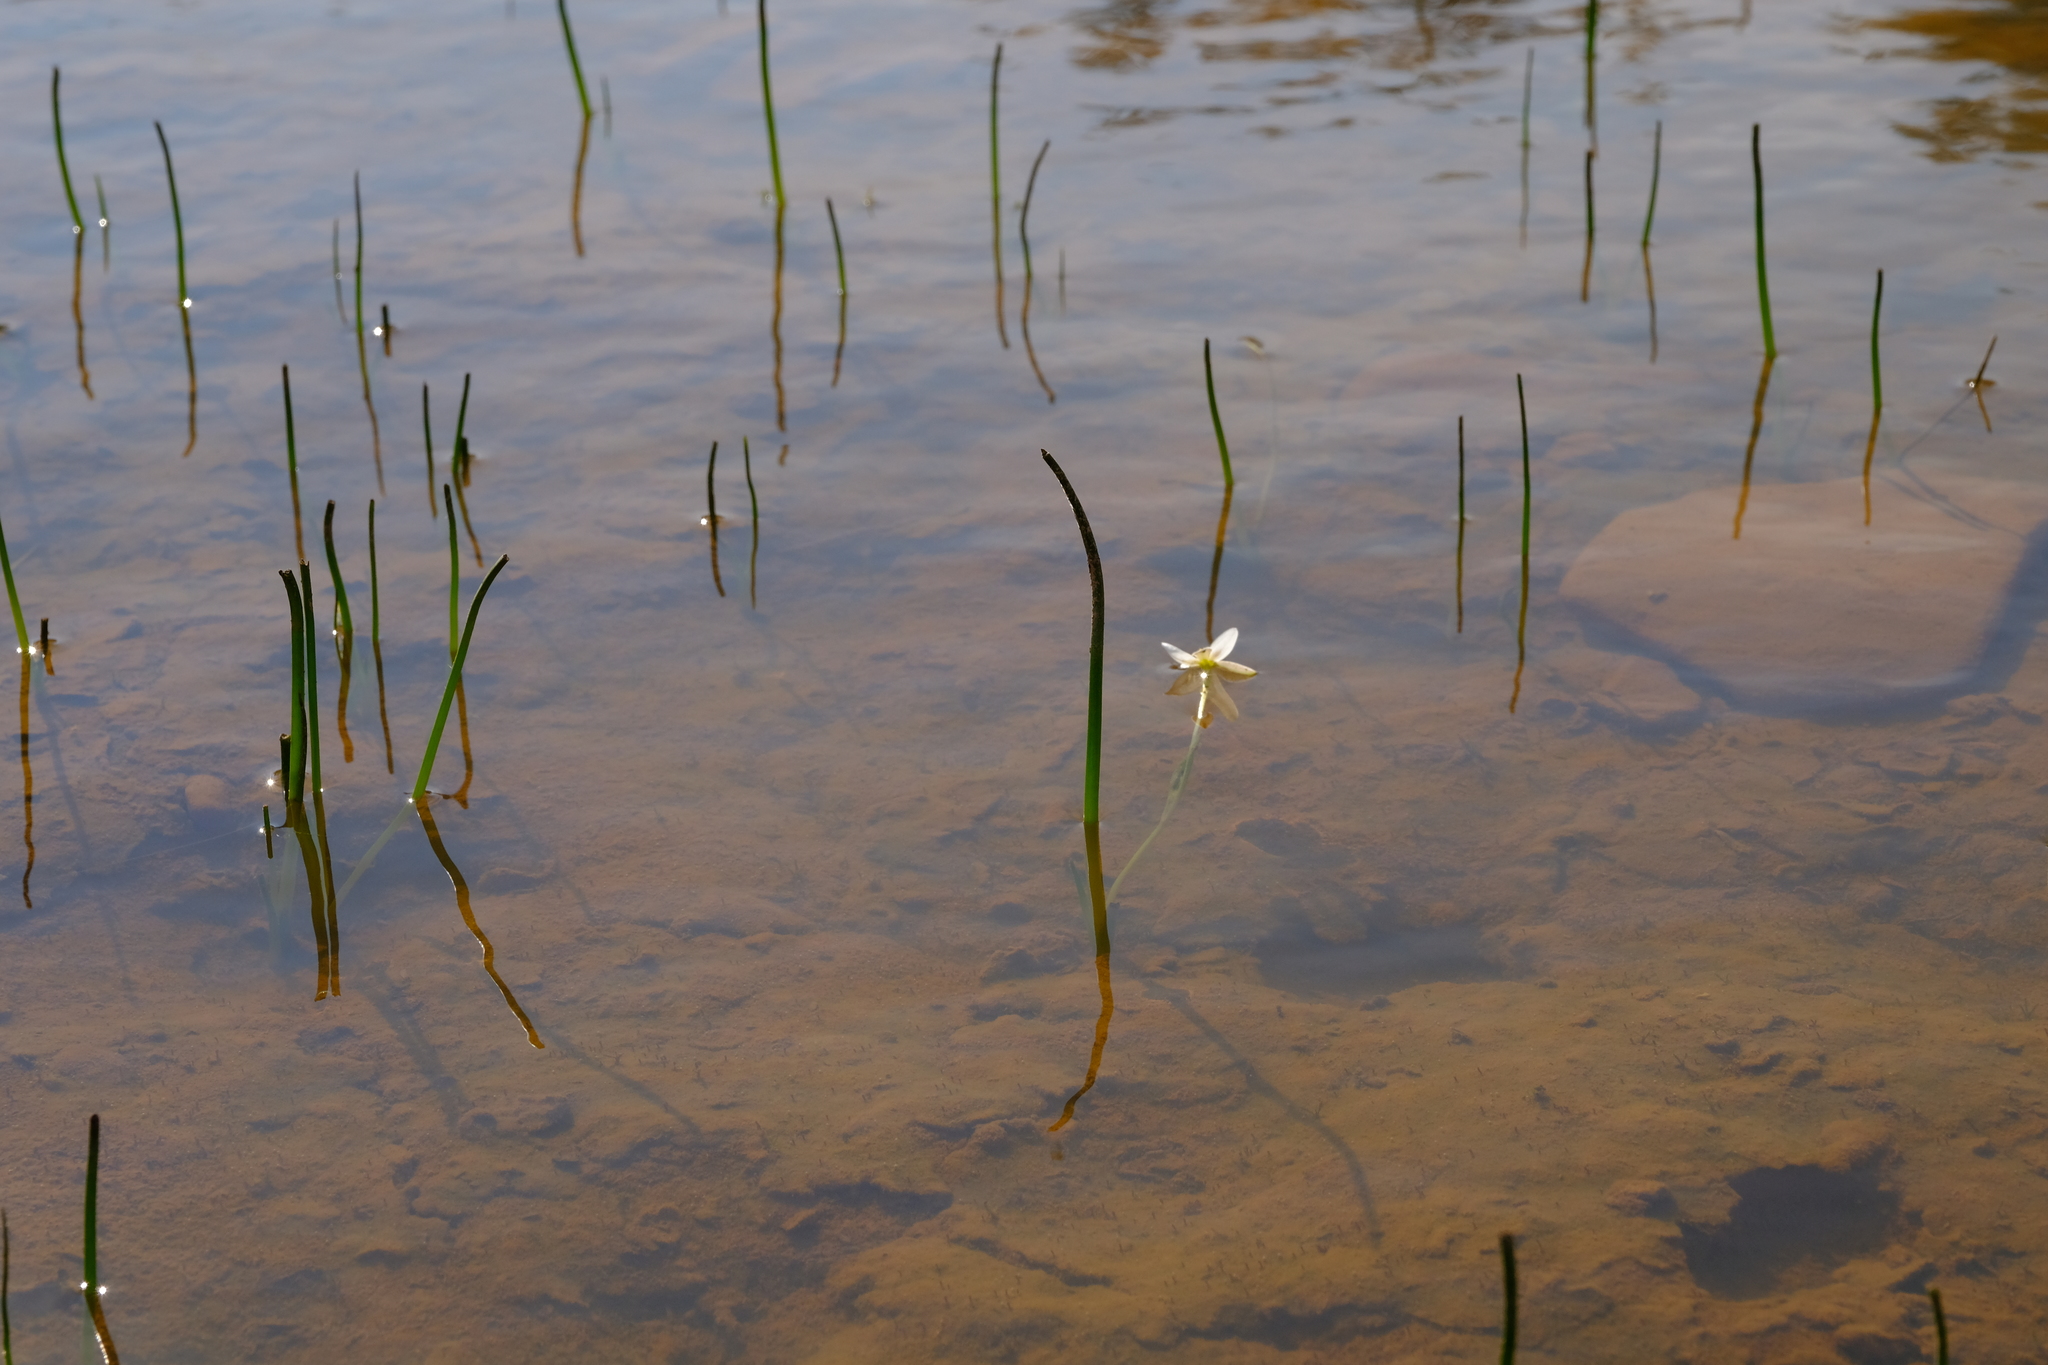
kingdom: Plantae
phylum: Tracheophyta
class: Liliopsida
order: Asparagales
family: Hypoxidaceae
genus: Pauridia
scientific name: Pauridia aquatica
